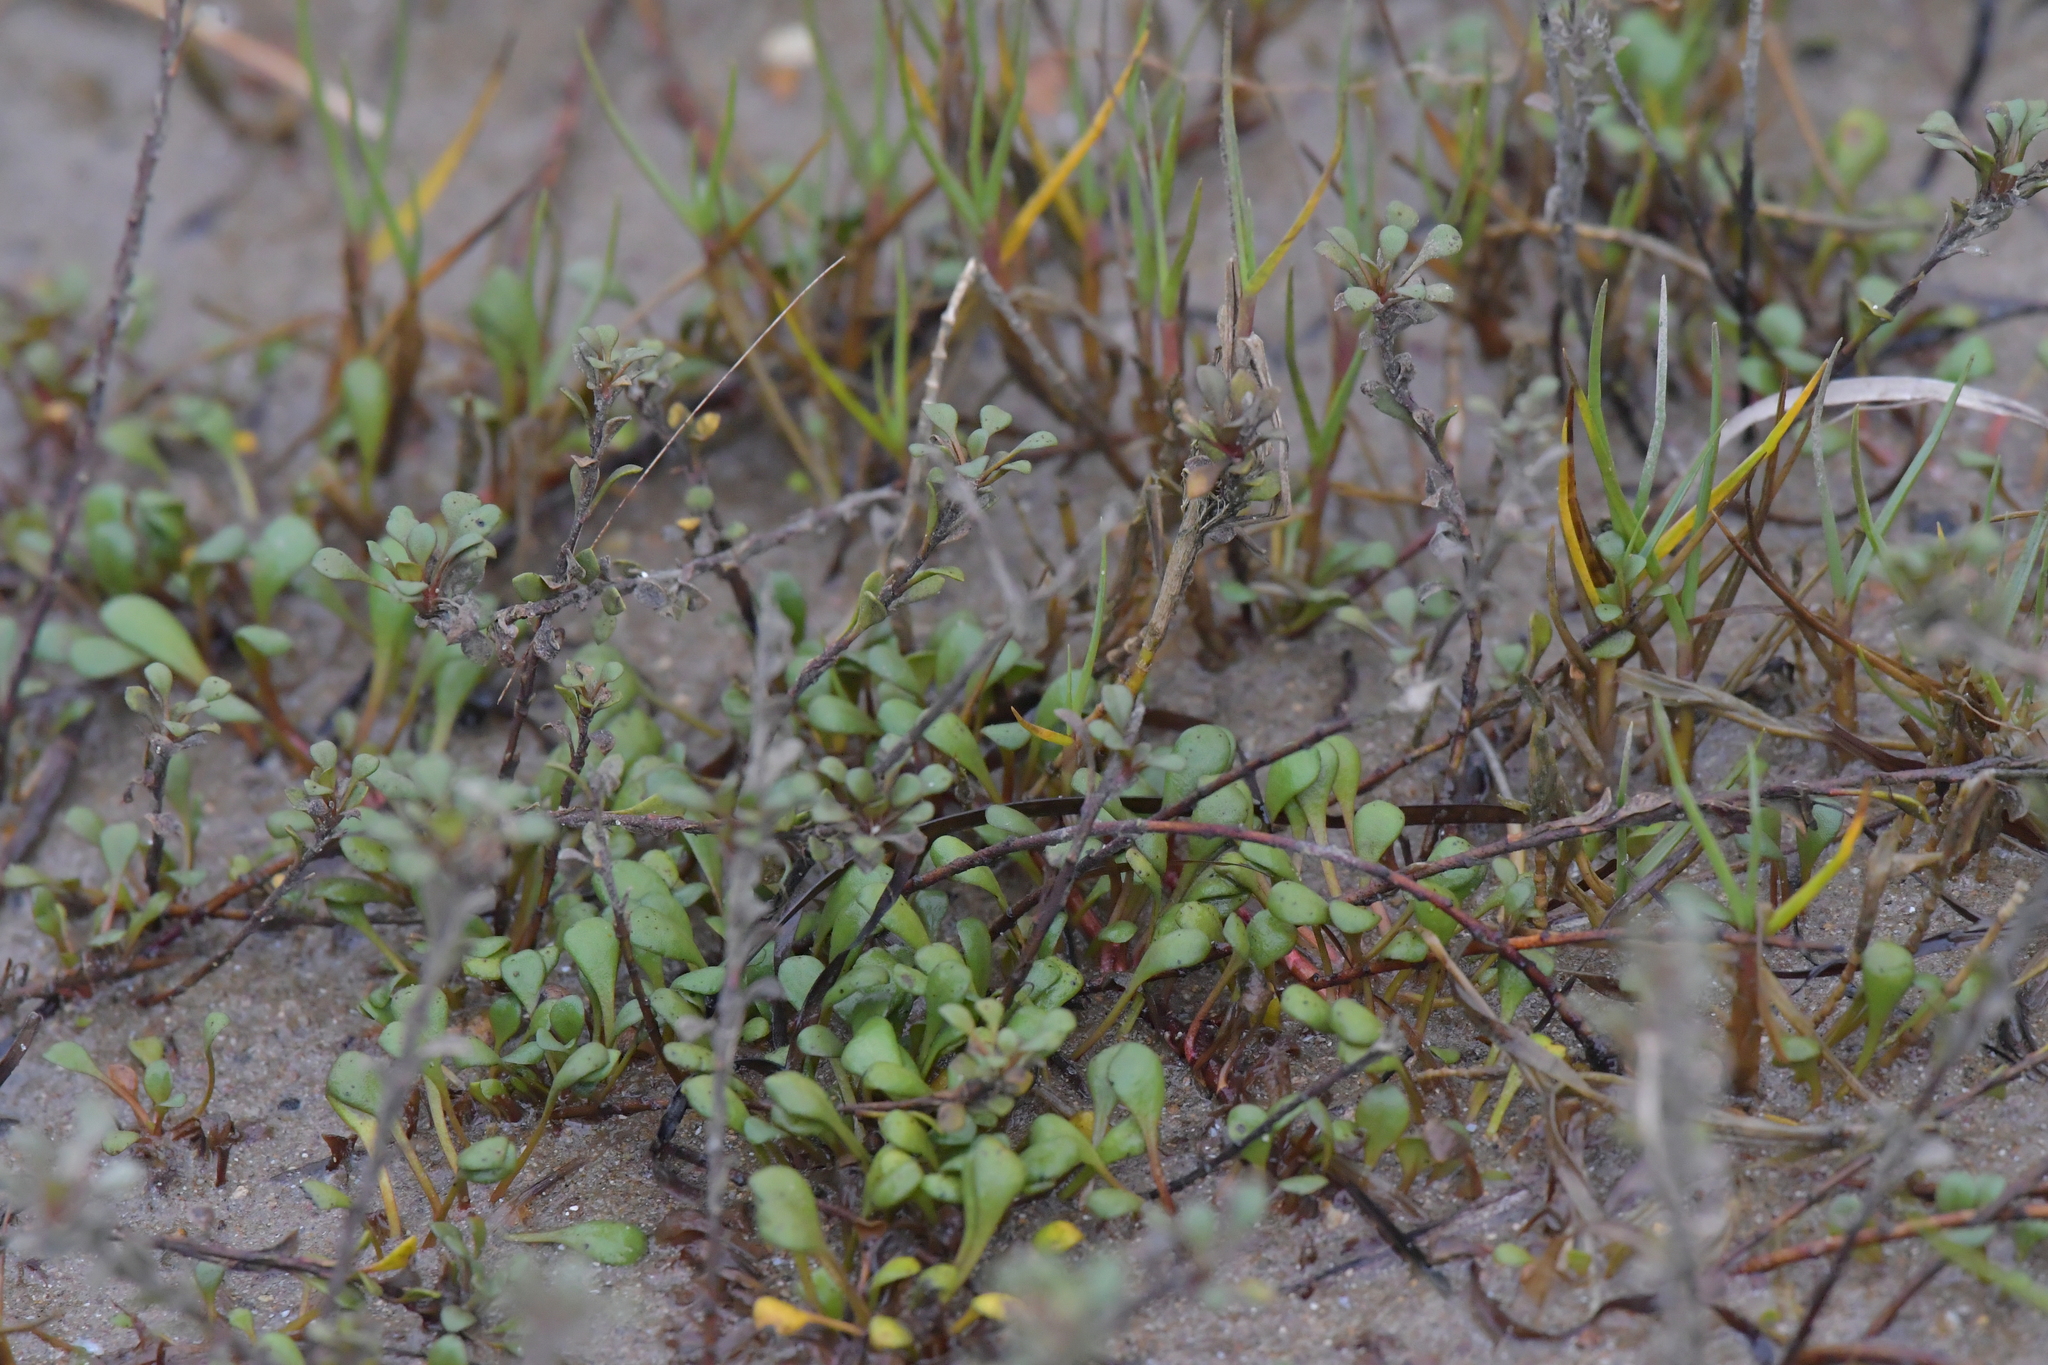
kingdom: Plantae
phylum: Tracheophyta
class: Magnoliopsida
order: Ericales
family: Primulaceae
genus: Samolus
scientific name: Samolus repens
